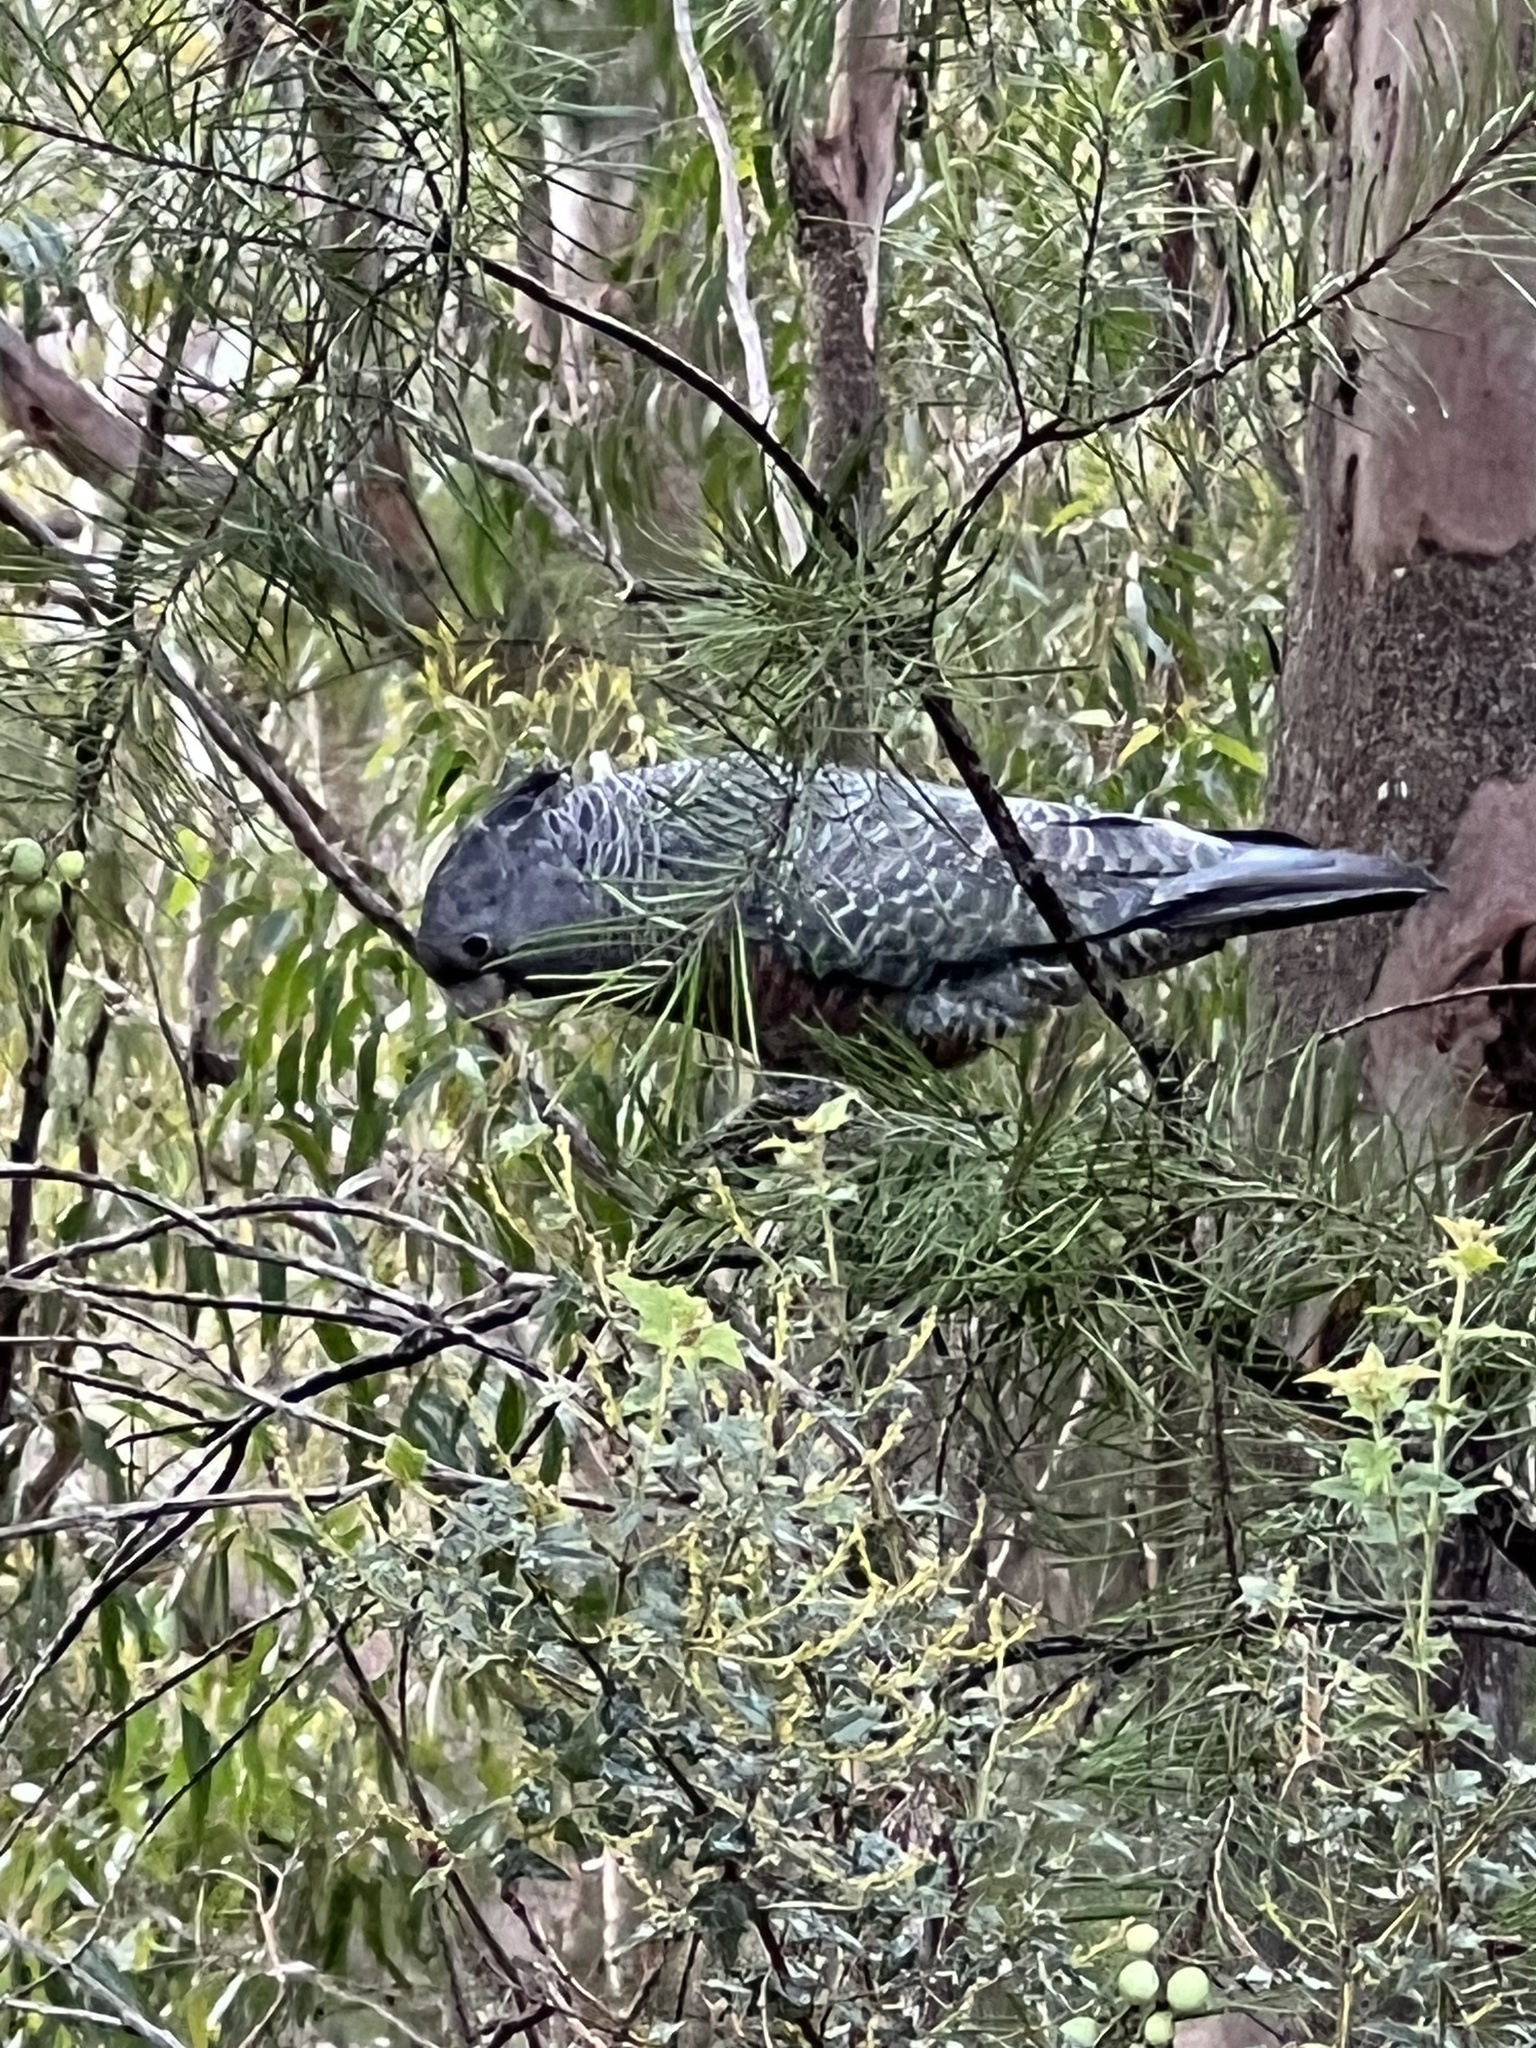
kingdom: Animalia
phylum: Chordata
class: Aves
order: Psittaciformes
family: Psittacidae
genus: Callocephalon
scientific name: Callocephalon fimbriatum
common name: Gang-gang cockatoo
